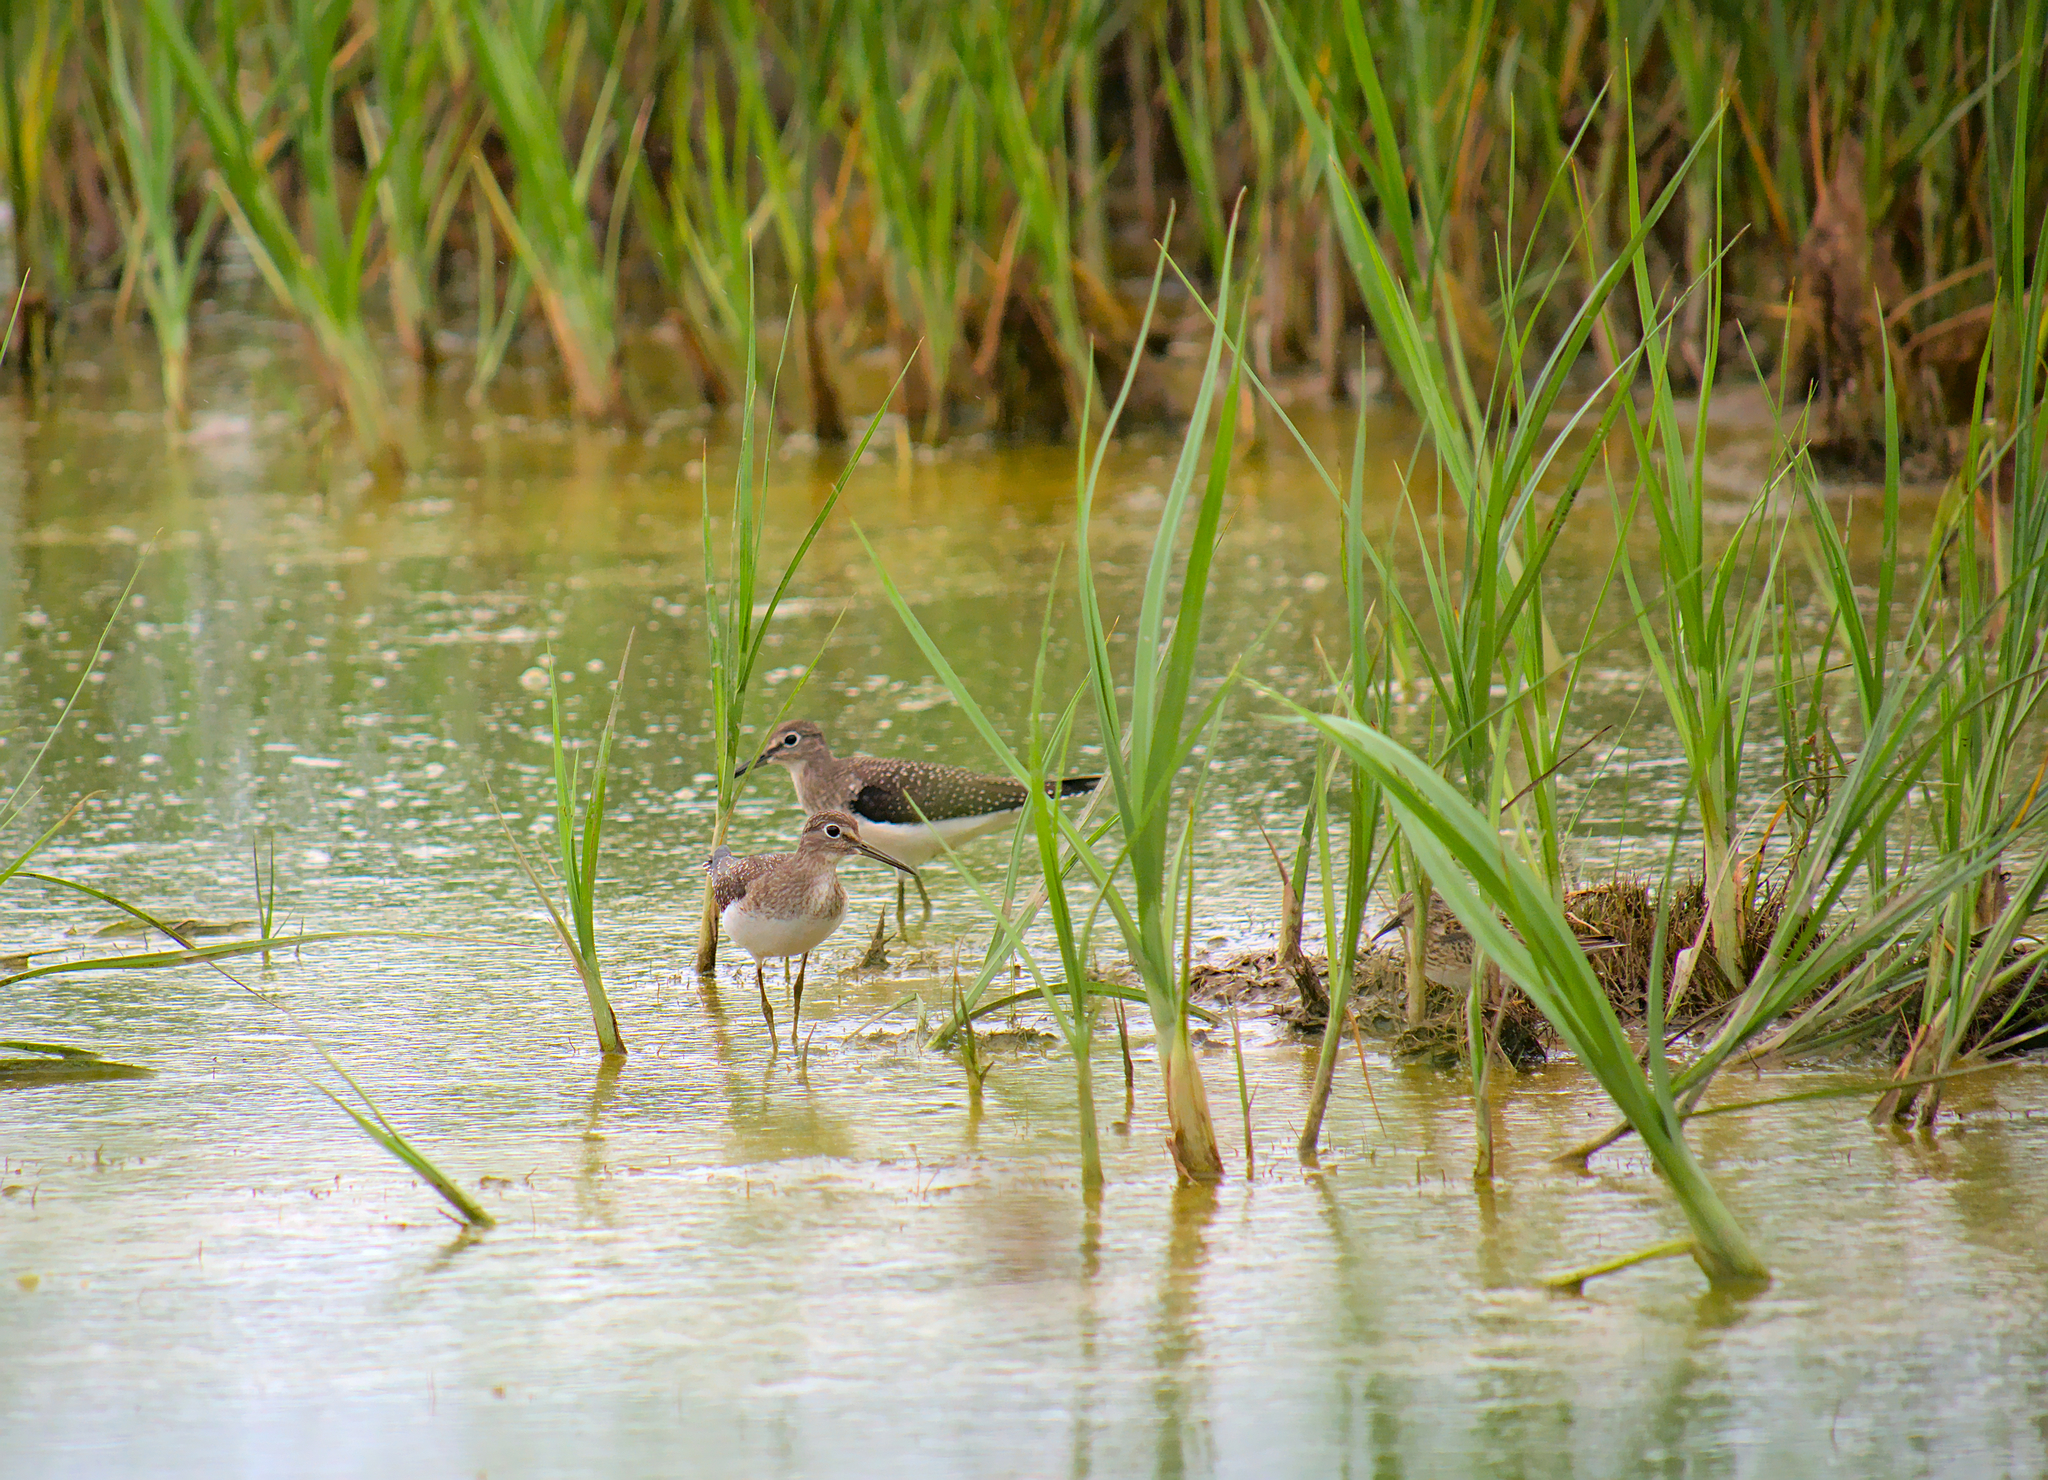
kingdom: Animalia
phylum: Chordata
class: Aves
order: Charadriiformes
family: Scolopacidae
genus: Tringa
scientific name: Tringa solitaria
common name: Solitary sandpiper
